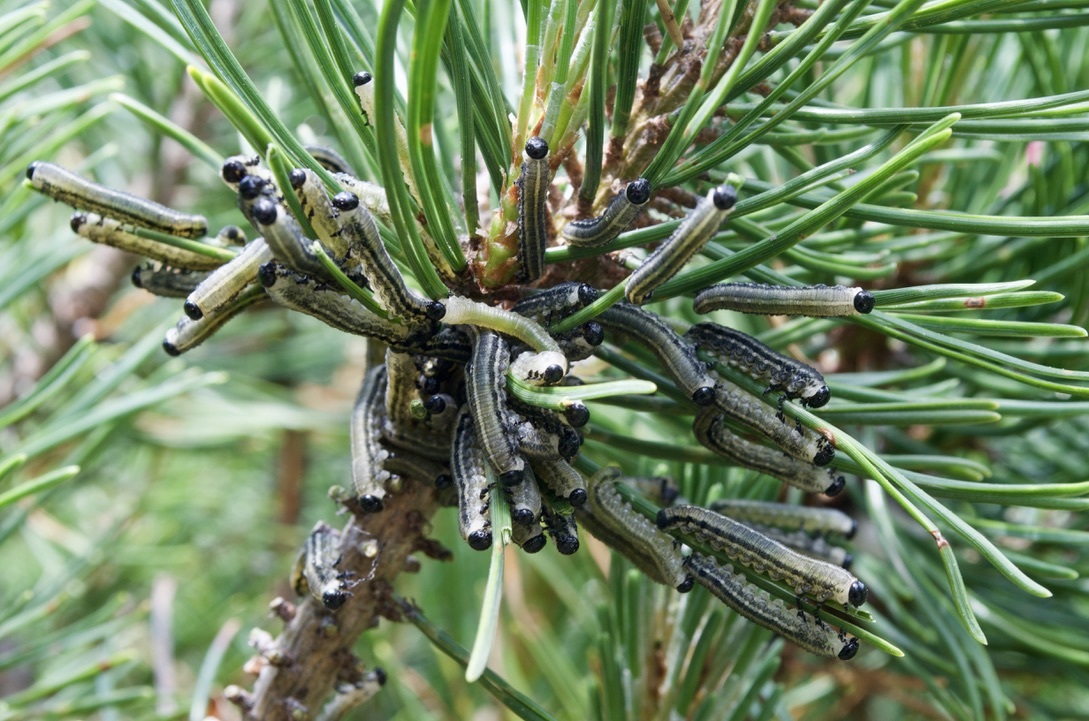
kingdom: Animalia
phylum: Arthropoda
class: Insecta
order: Hymenoptera
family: Diprionidae
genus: Neodiprion
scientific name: Neodiprion sertifer
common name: European pine sawfly
